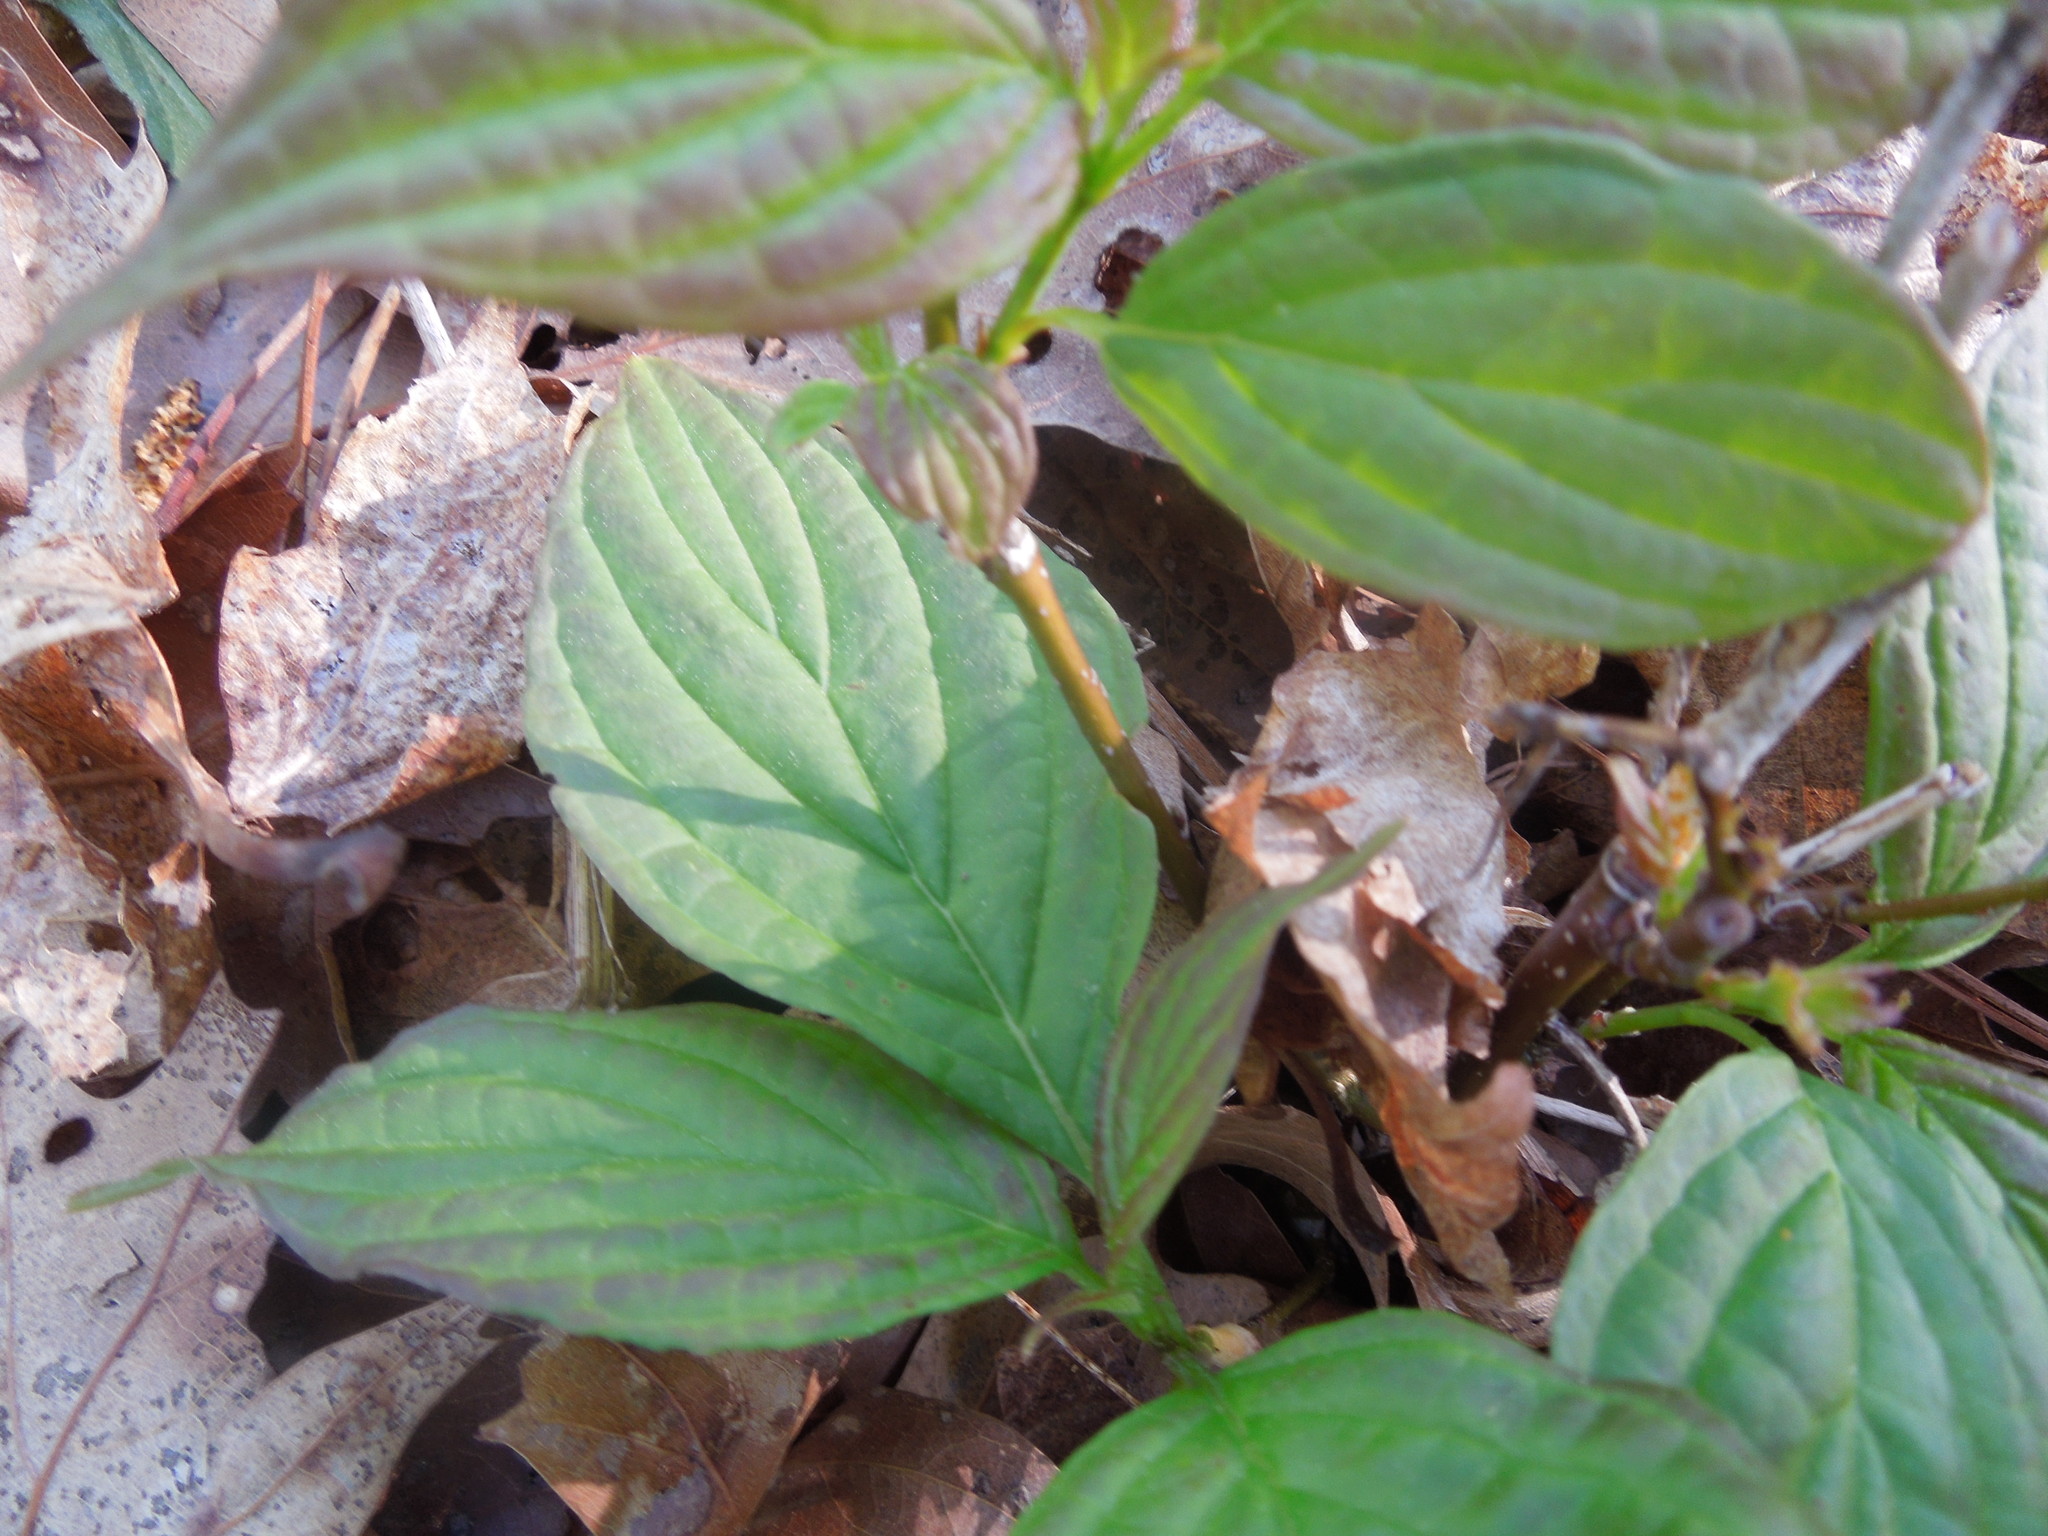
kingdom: Plantae
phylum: Tracheophyta
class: Magnoliopsida
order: Cornales
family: Cornaceae
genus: Cornus
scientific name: Cornus
